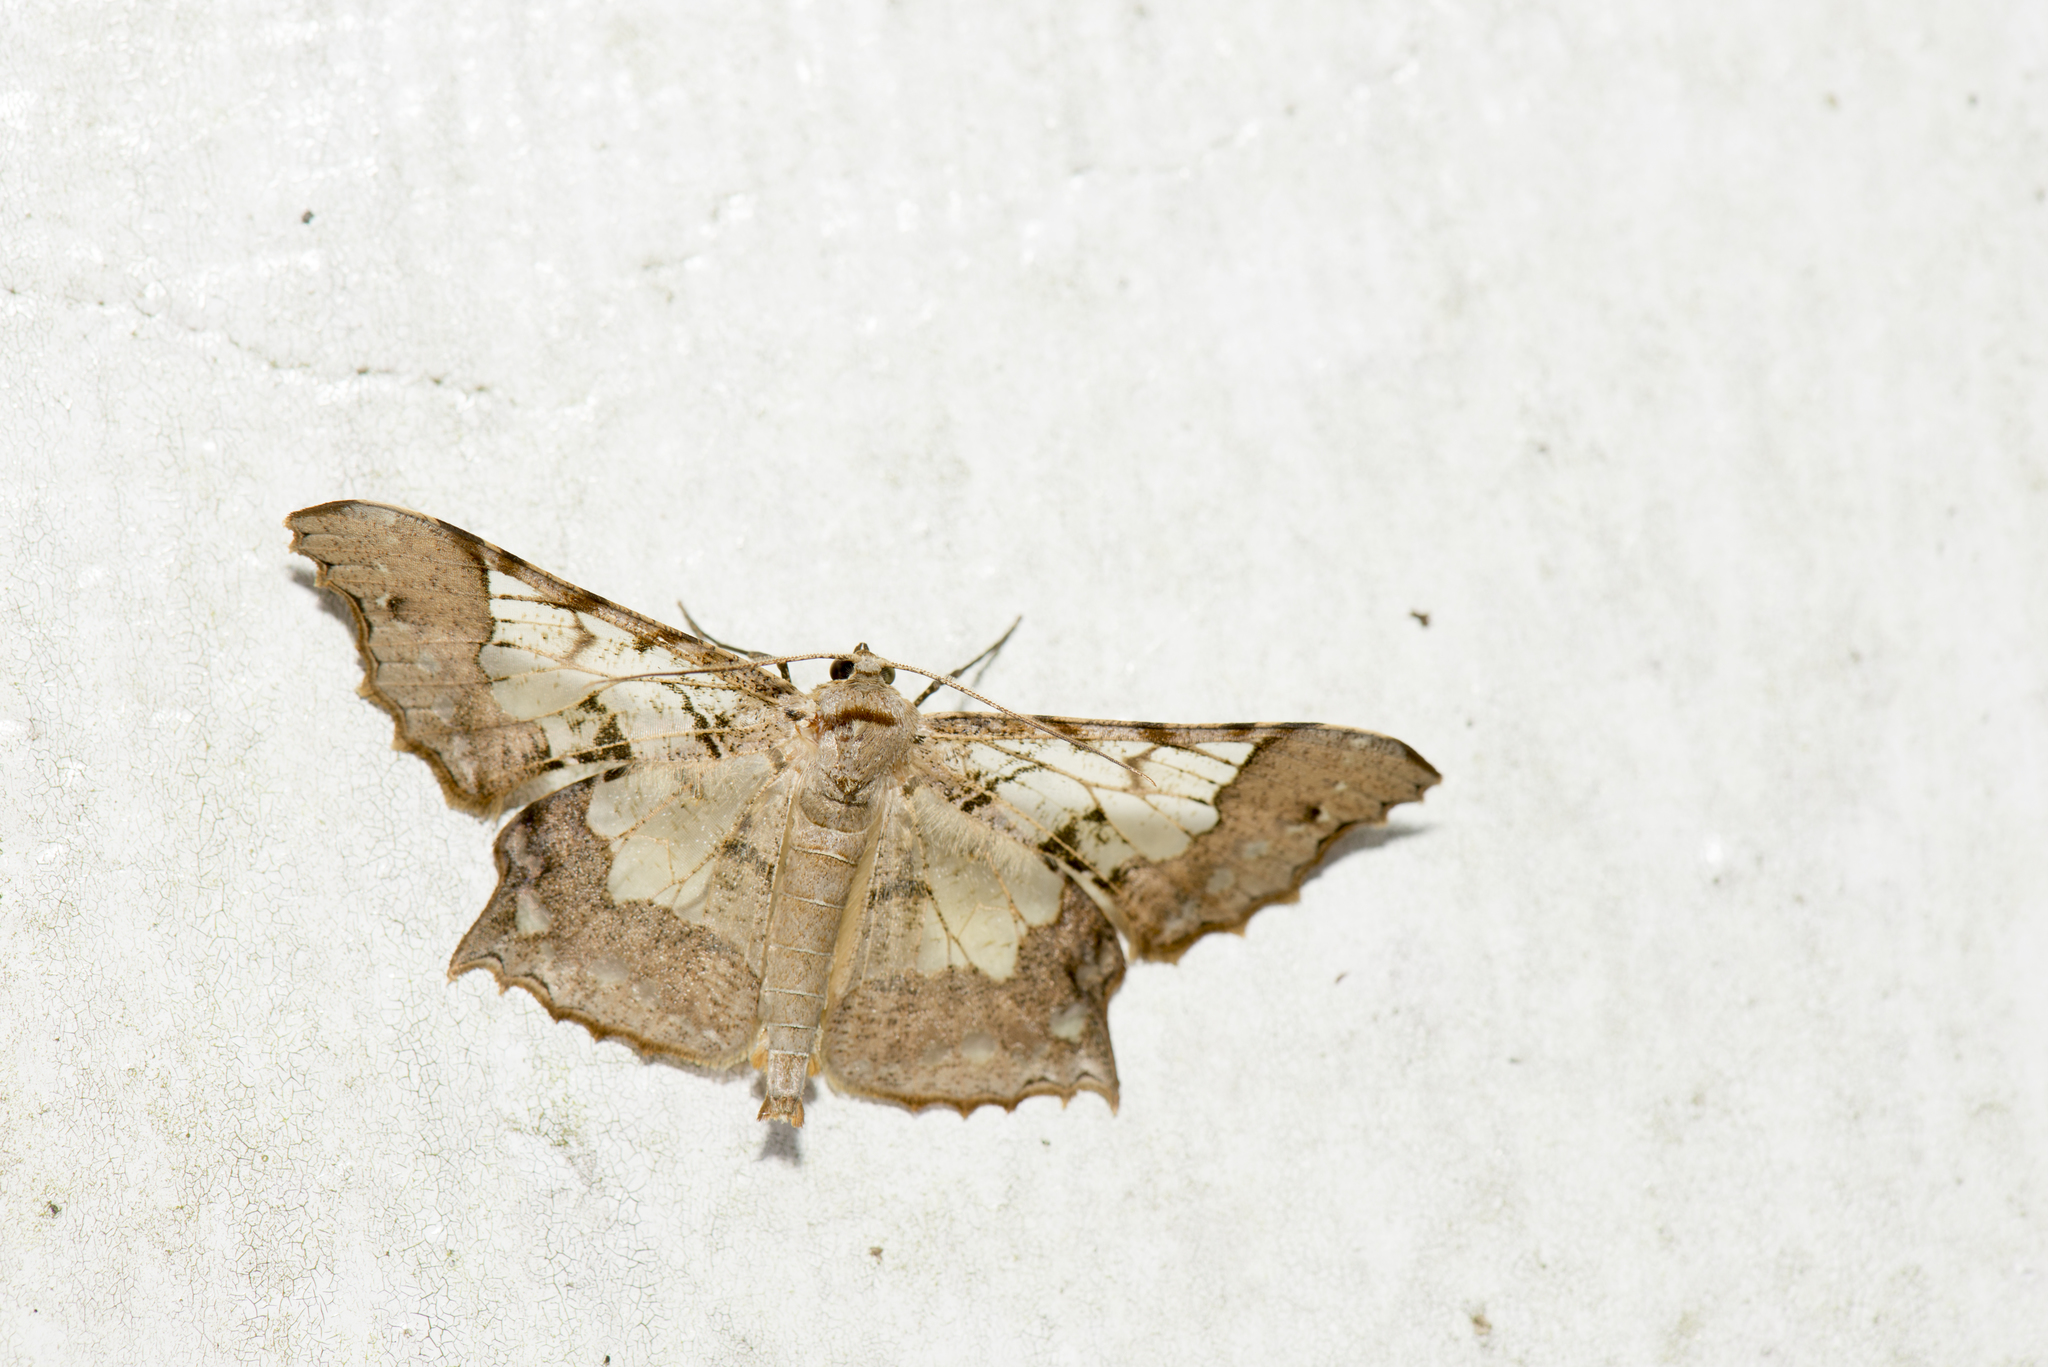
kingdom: Animalia
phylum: Arthropoda
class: Insecta
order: Lepidoptera
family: Geometridae
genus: Krananda
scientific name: Krananda semihyalina
